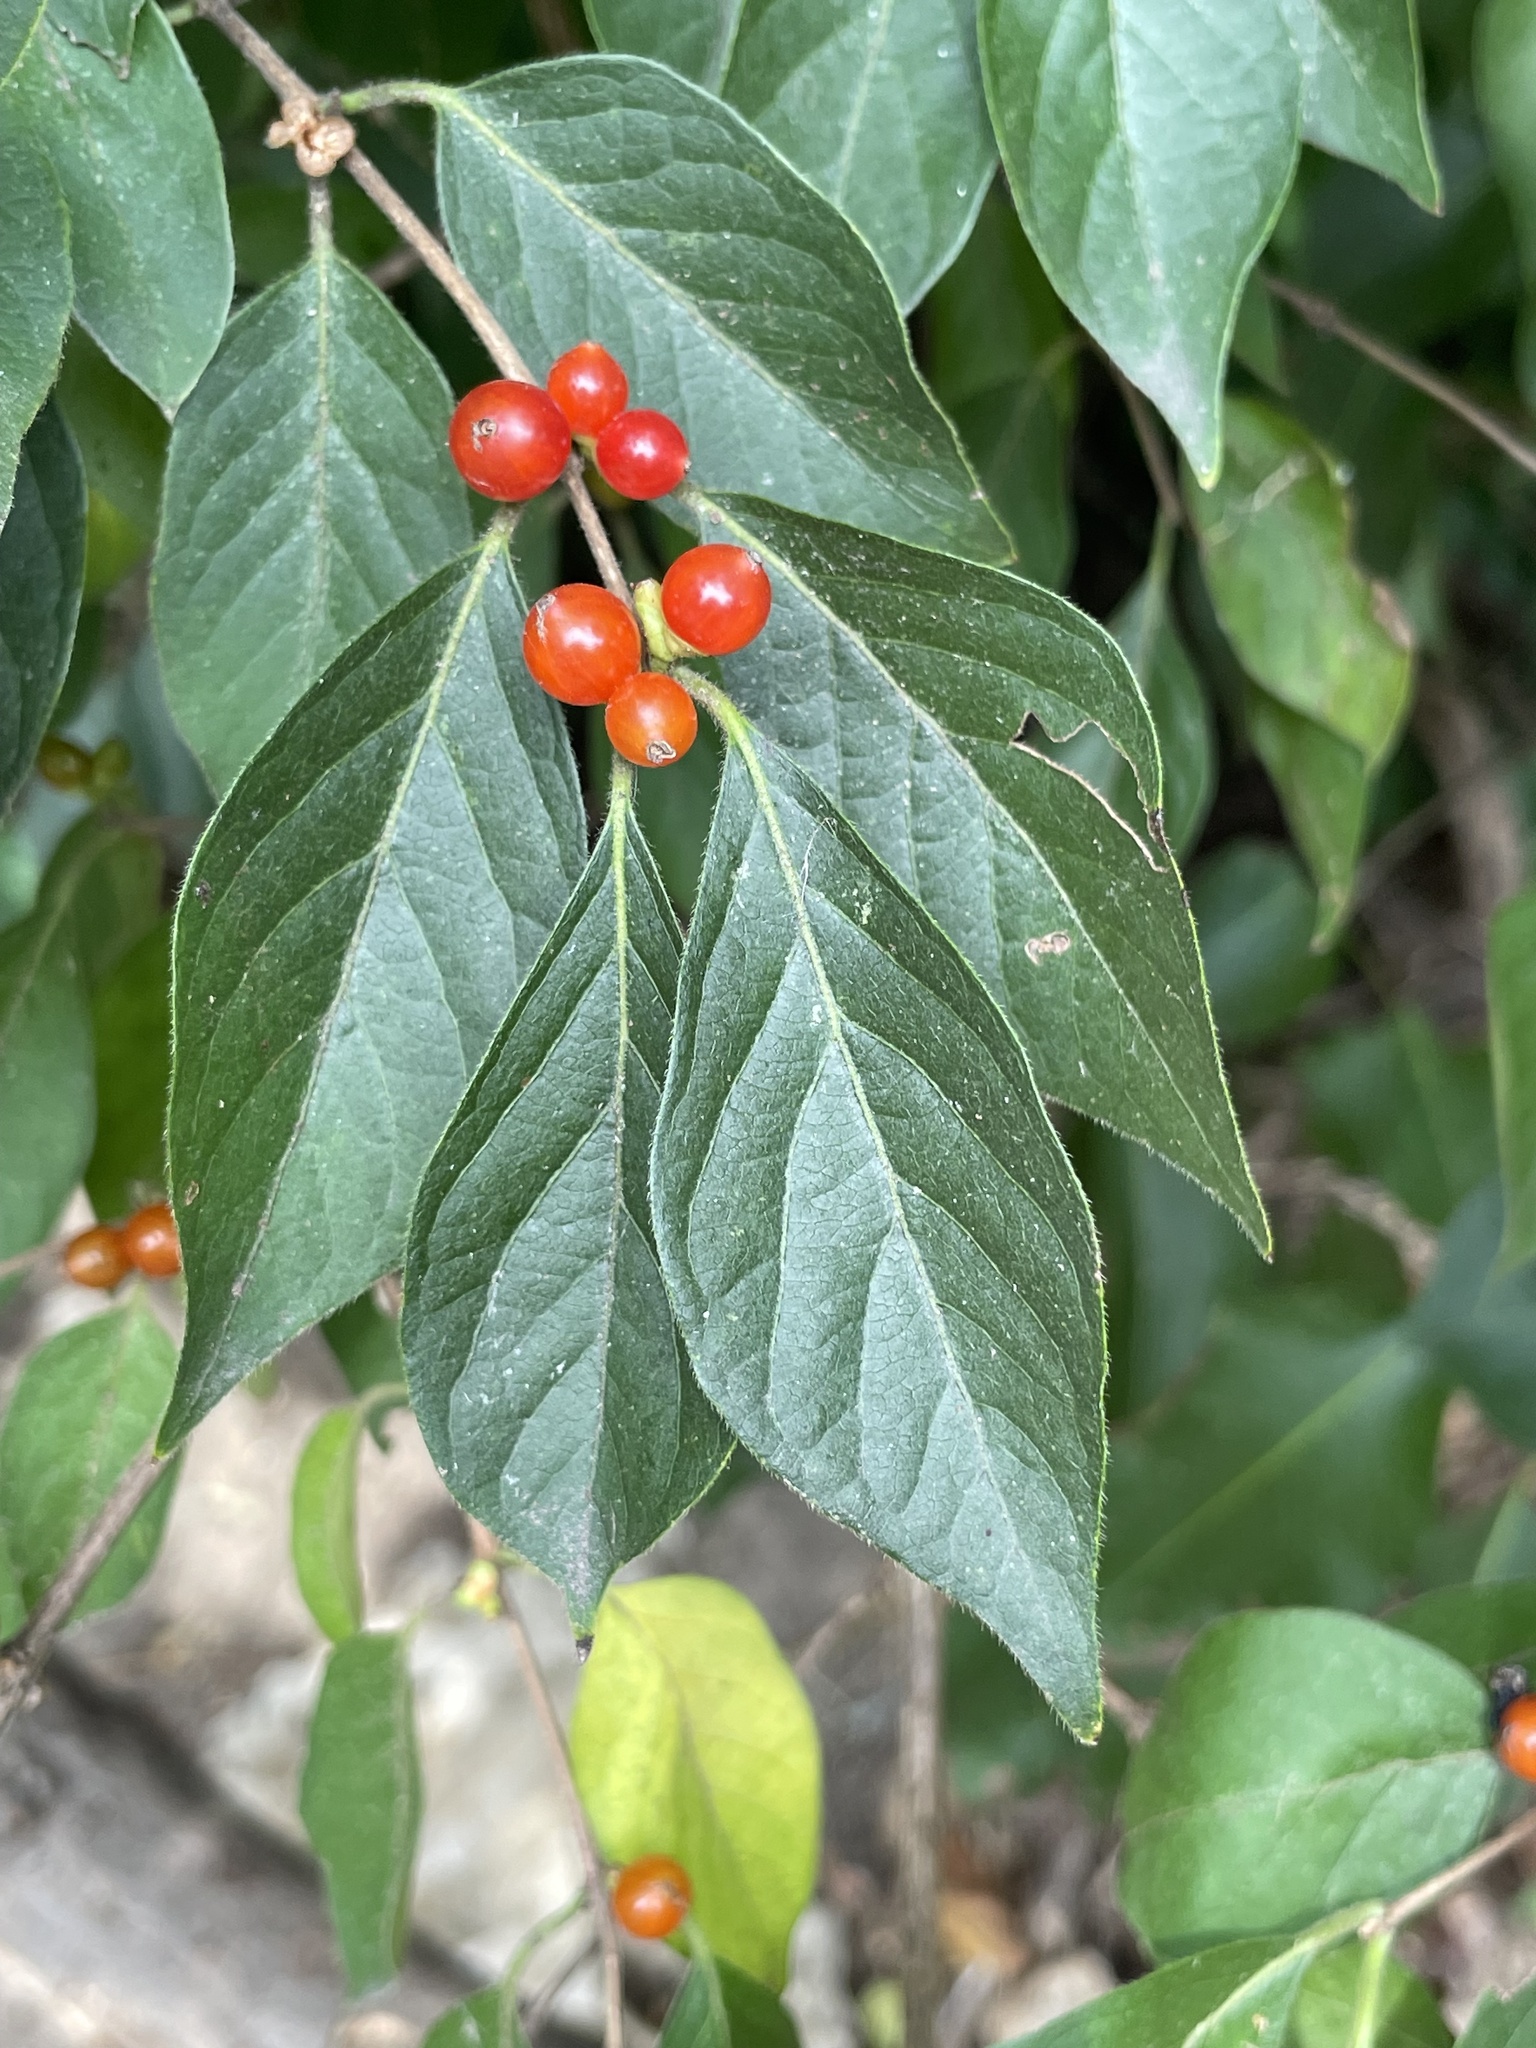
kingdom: Plantae
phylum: Tracheophyta
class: Magnoliopsida
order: Dipsacales
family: Caprifoliaceae
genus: Lonicera
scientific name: Lonicera maackii
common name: Amur honeysuckle
